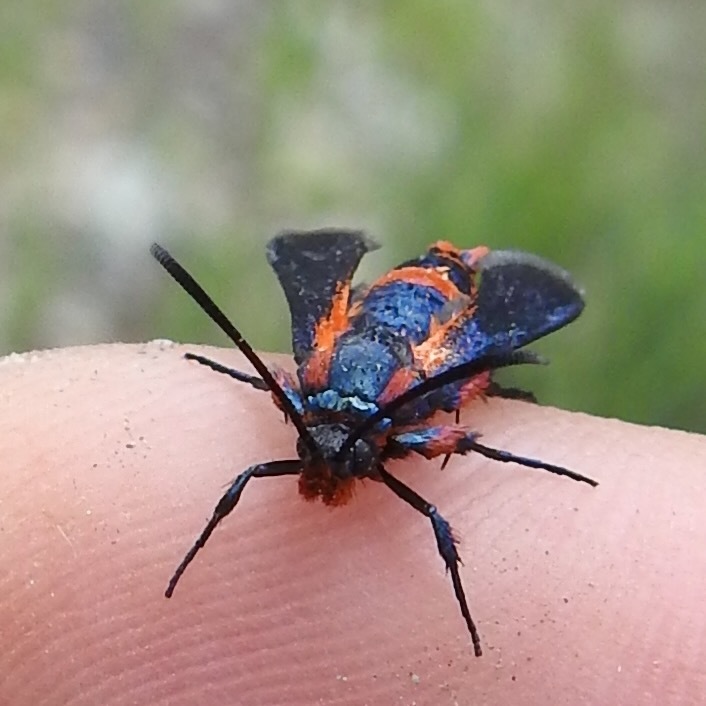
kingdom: Animalia
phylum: Arthropoda
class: Insecta
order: Lepidoptera
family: Sesiidae
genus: Synanthedon
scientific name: Synanthedon polygoni
